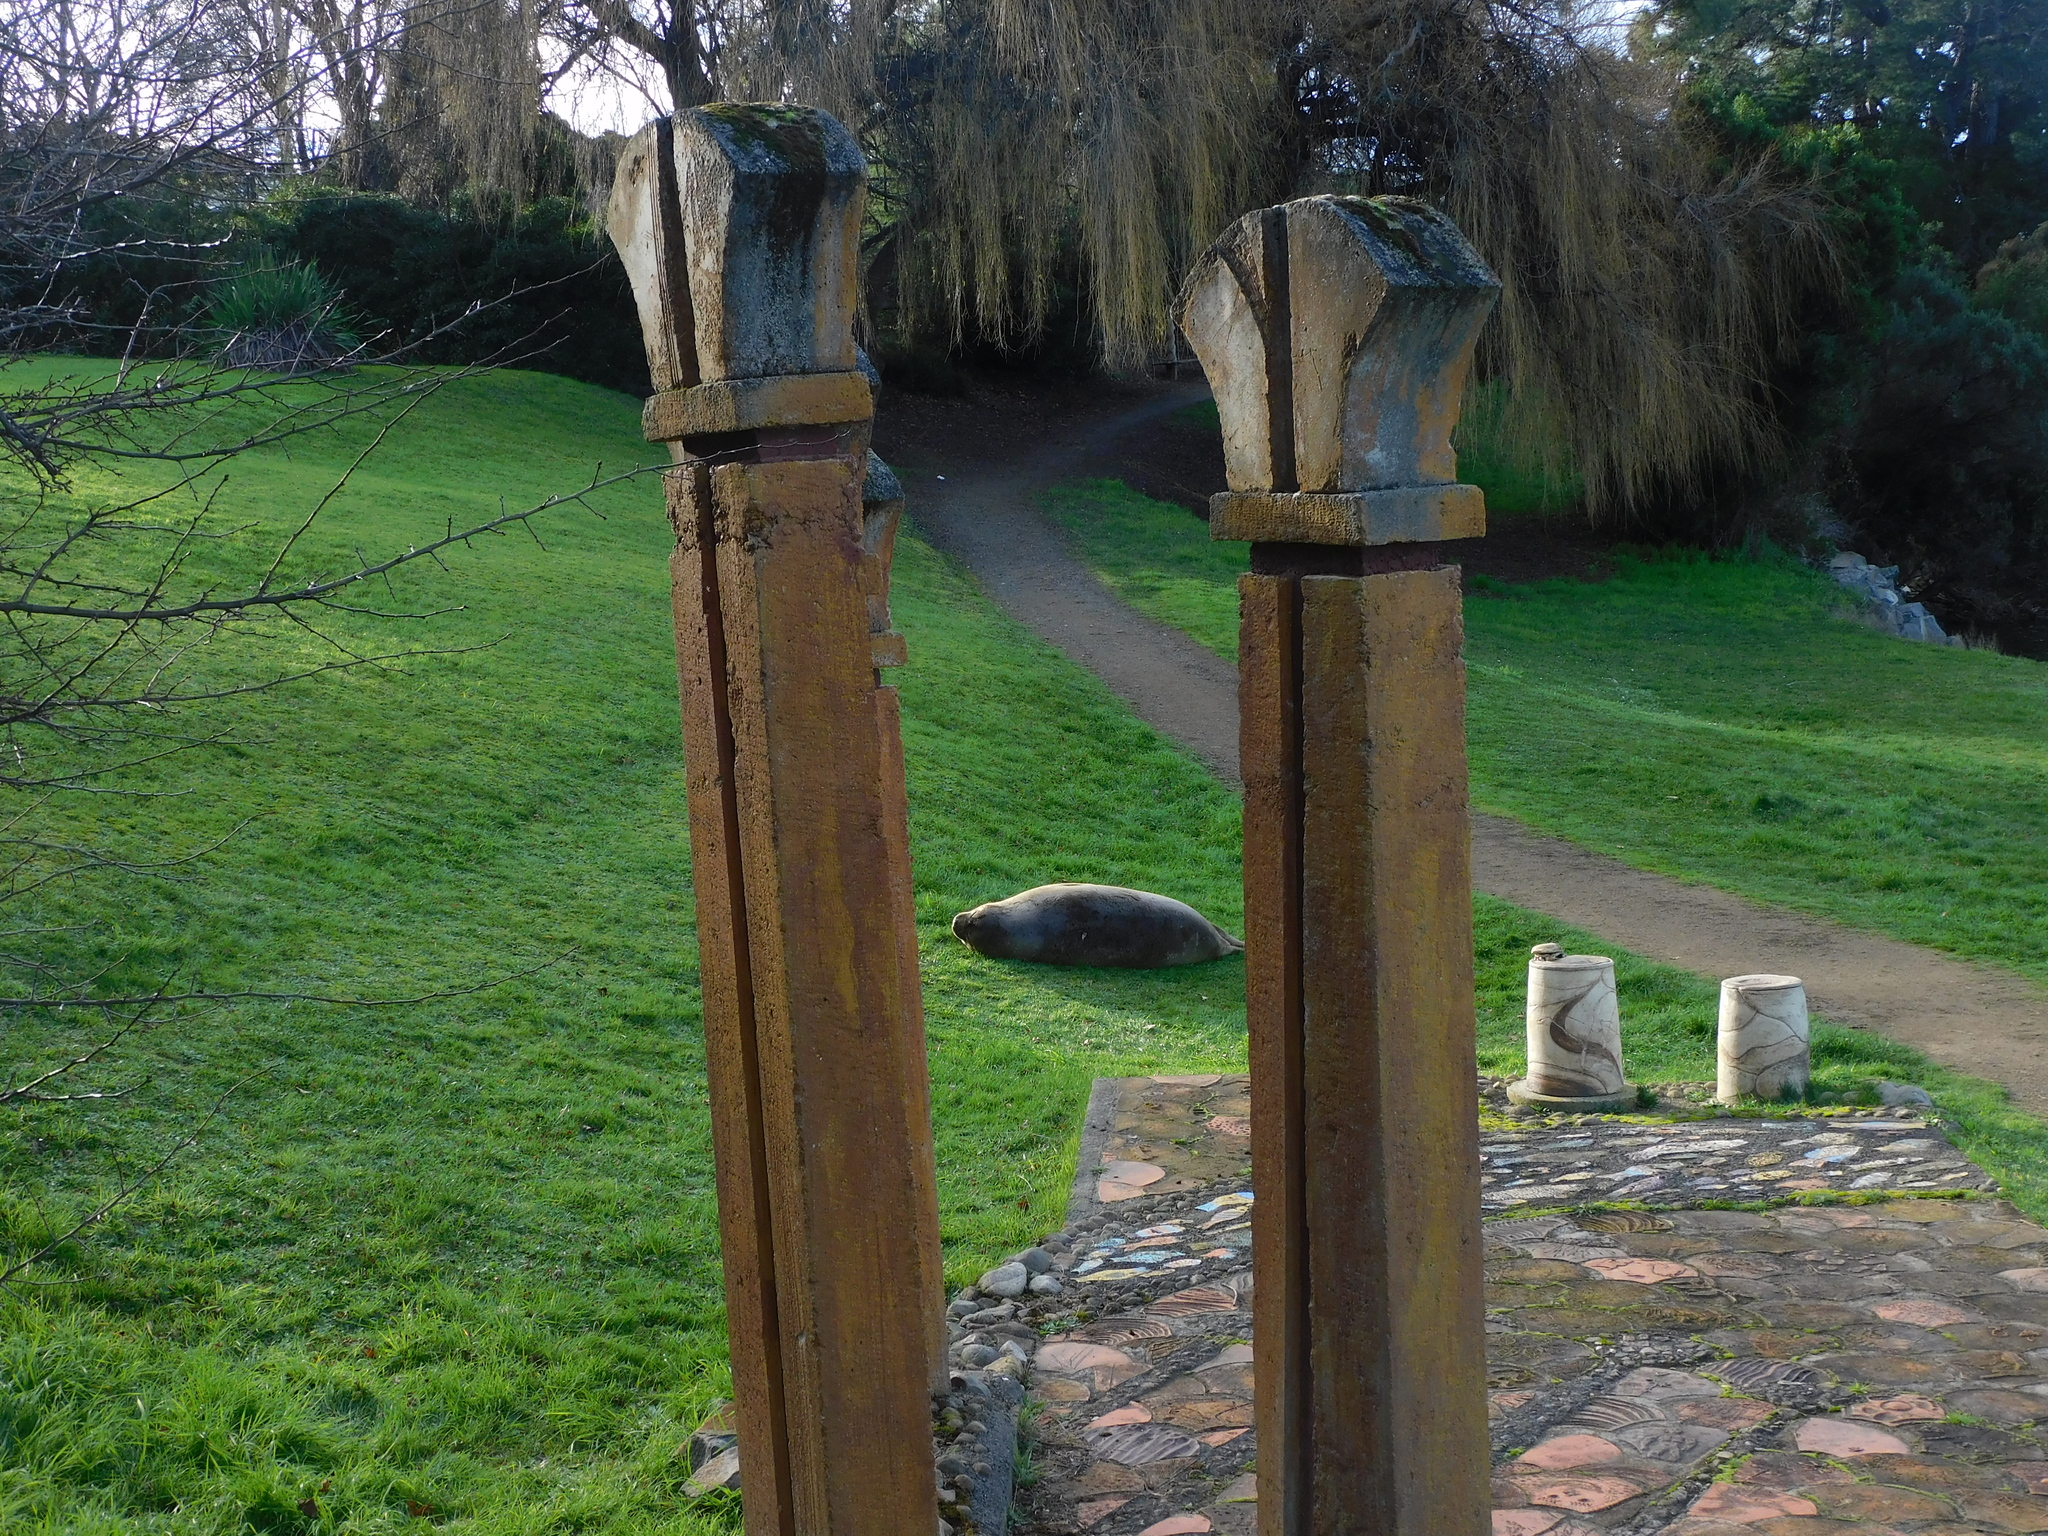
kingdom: Animalia
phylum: Chordata
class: Mammalia
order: Carnivora
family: Phocidae
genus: Mirounga
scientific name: Mirounga leonina
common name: Southern elephant seal
